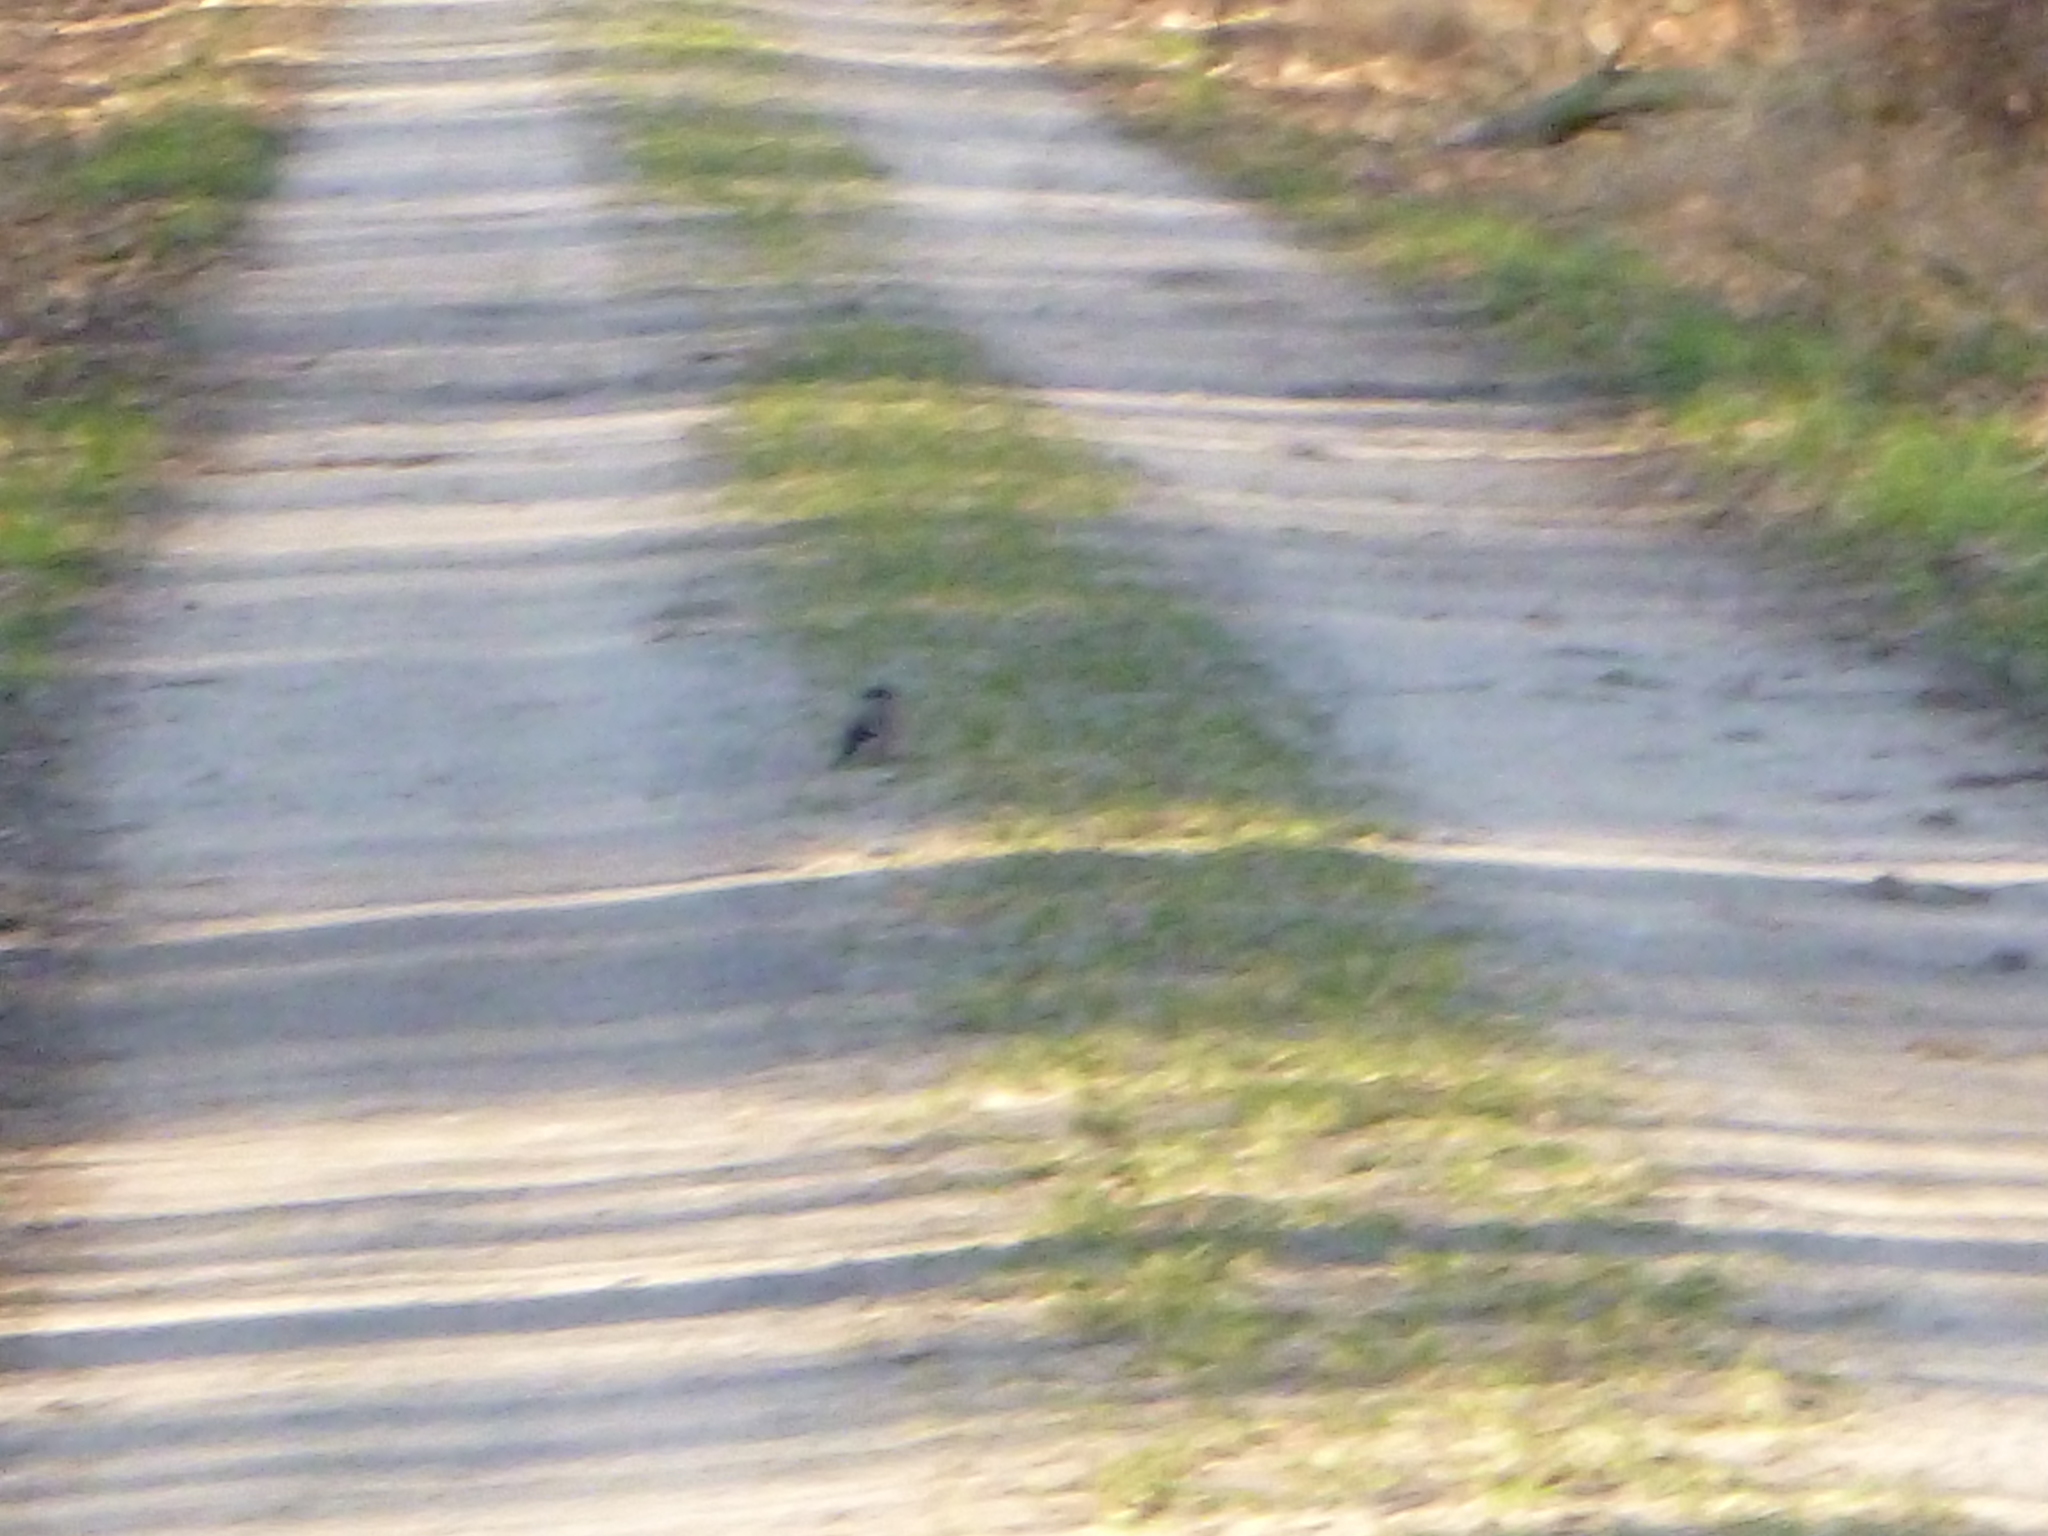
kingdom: Animalia
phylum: Chordata
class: Aves
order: Passeriformes
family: Fringillidae
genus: Pyrrhula
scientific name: Pyrrhula pyrrhula
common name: Eurasian bullfinch
